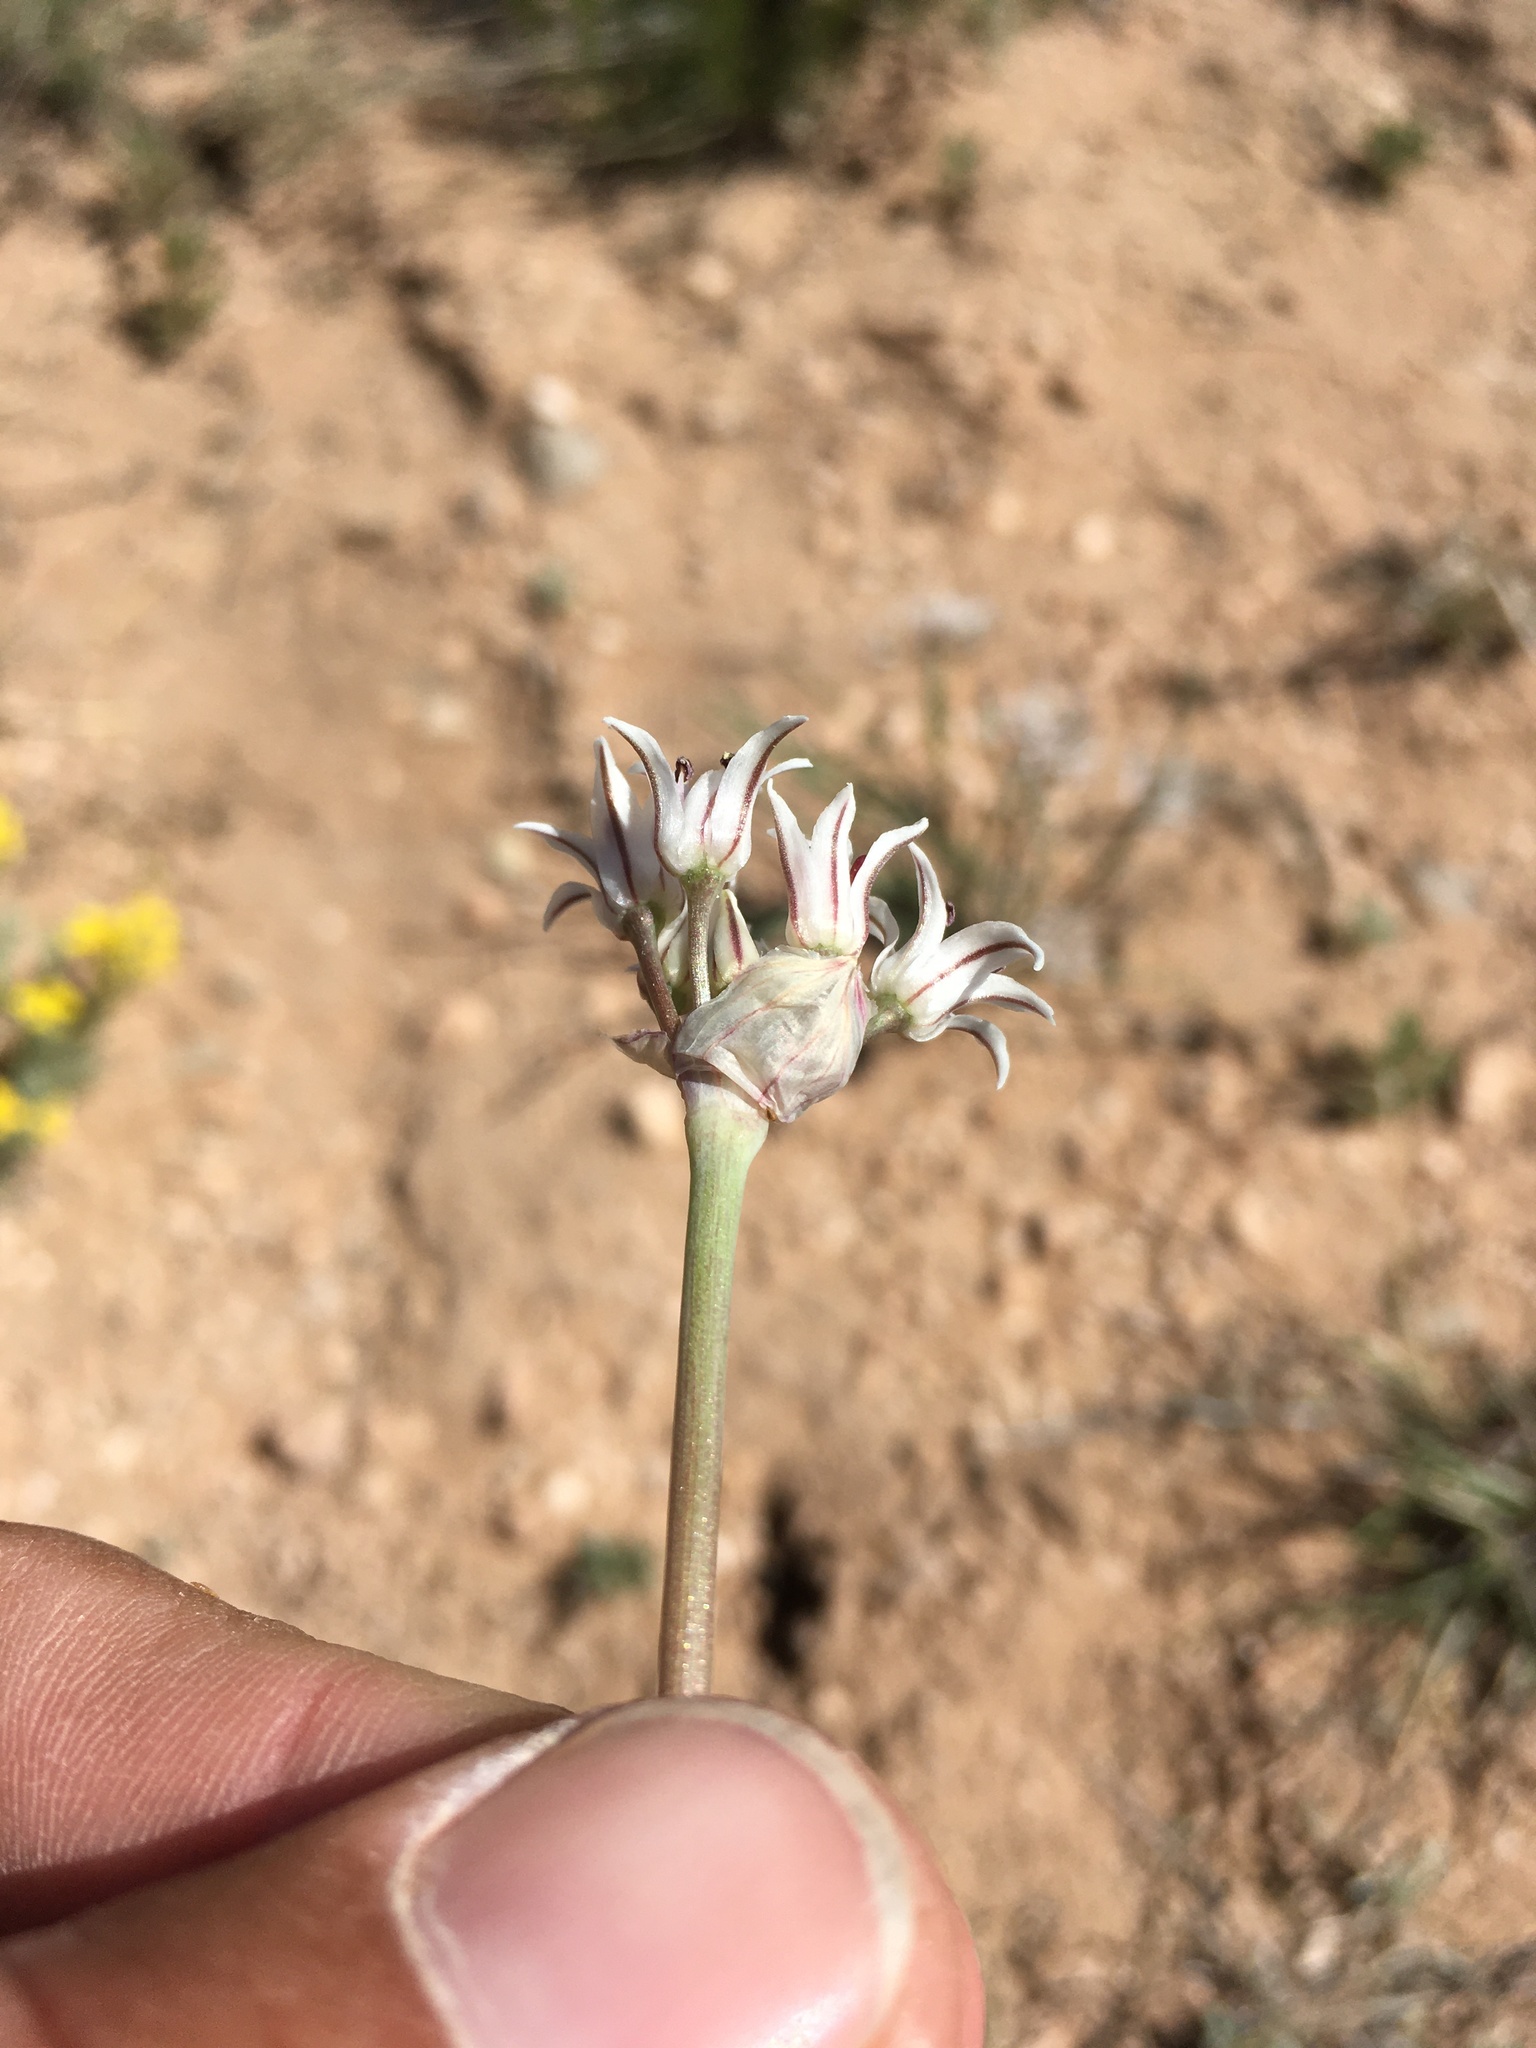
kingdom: Plantae
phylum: Tracheophyta
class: Liliopsida
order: Asparagales
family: Amaryllidaceae
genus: Allium
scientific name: Allium macropetalum
